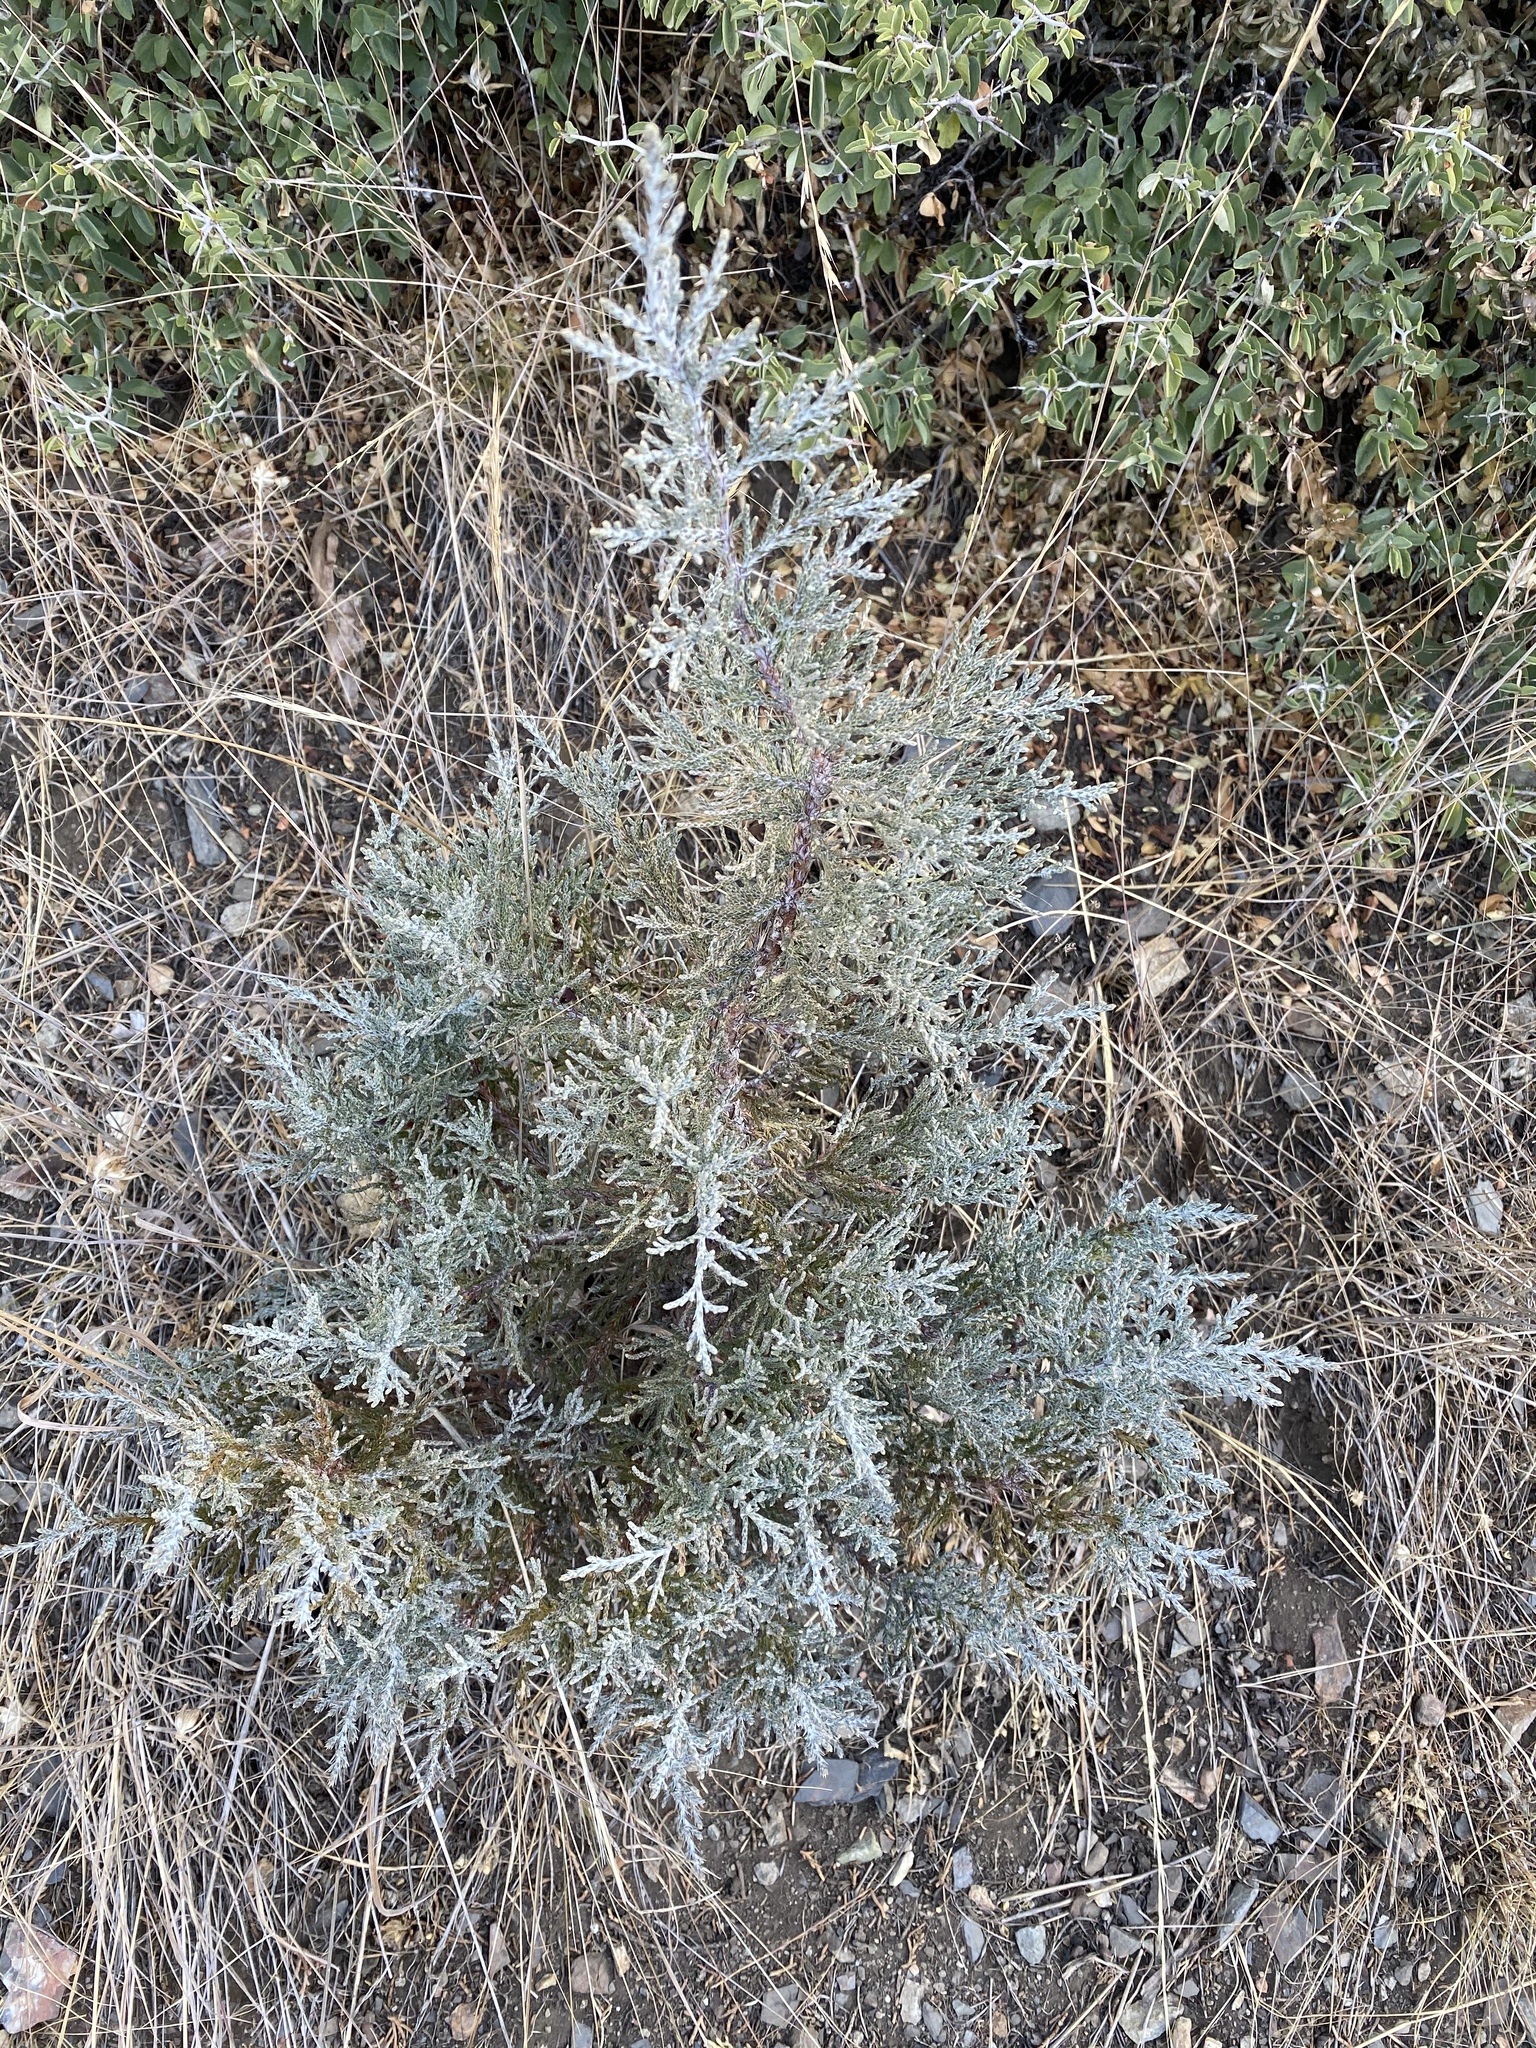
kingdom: Plantae
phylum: Tracheophyta
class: Pinopsida
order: Pinales
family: Cupressaceae
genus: Juniperus
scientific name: Juniperus occidentalis
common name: Western juniper
